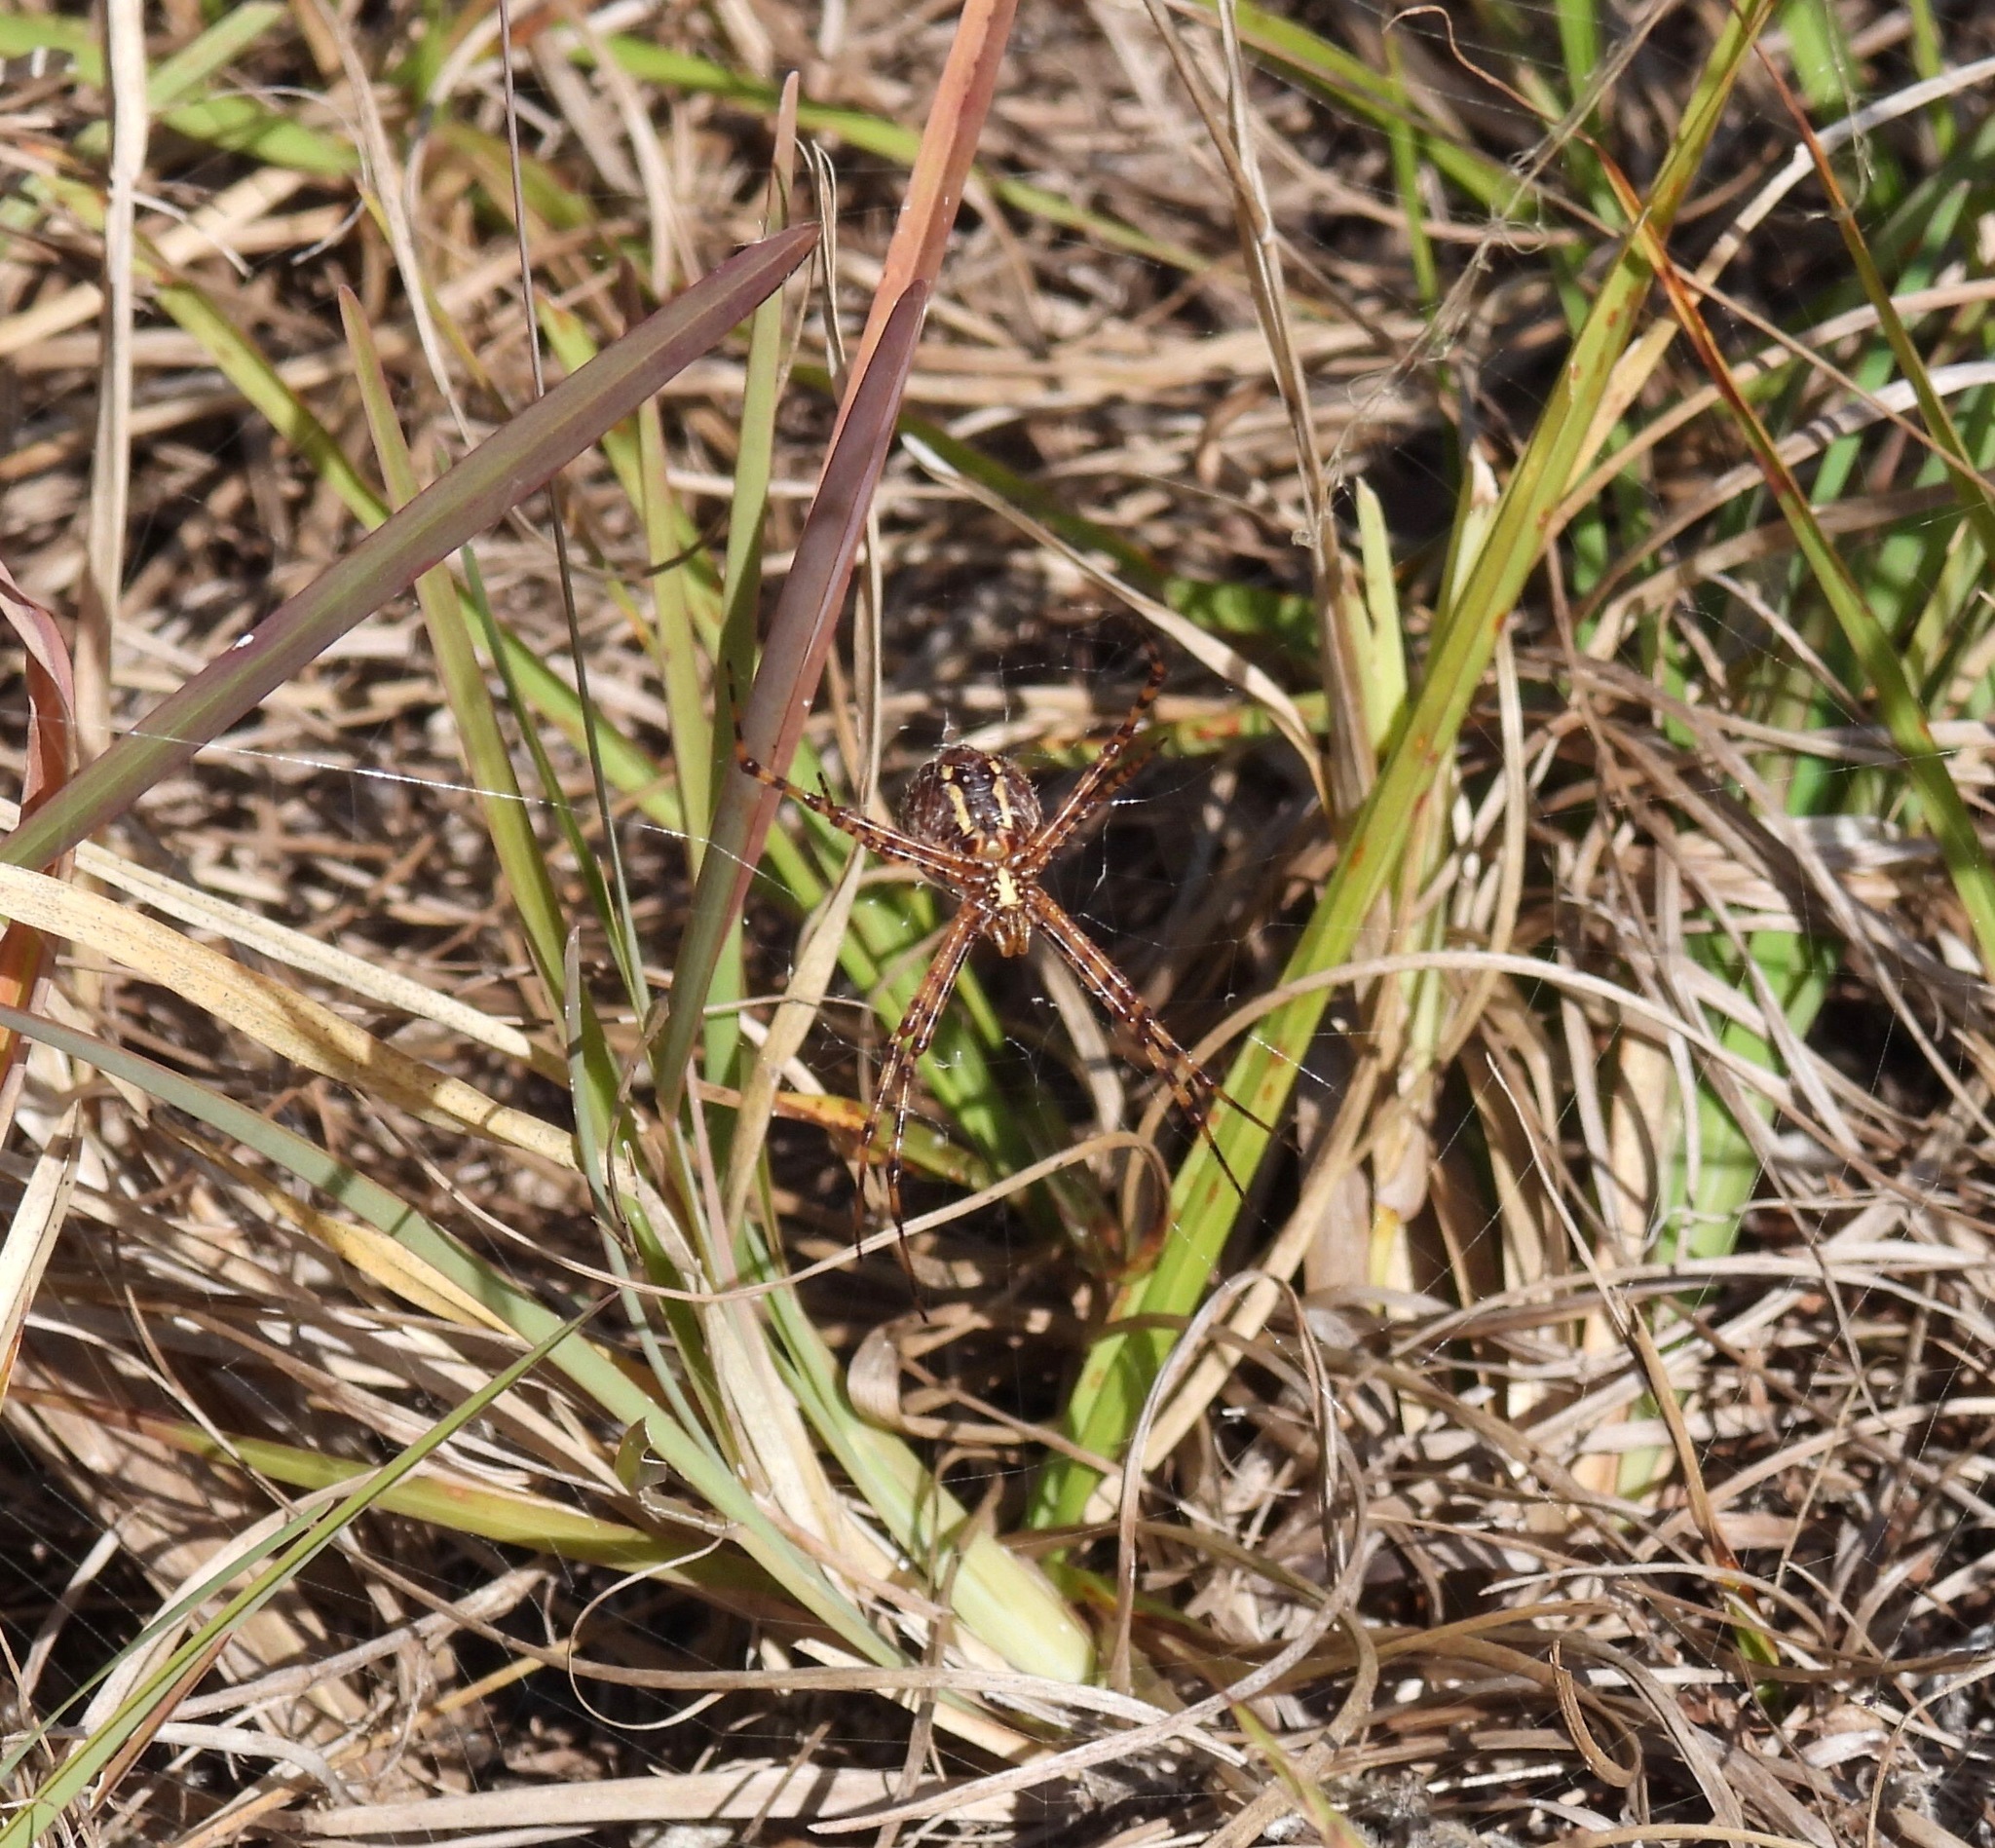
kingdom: Animalia
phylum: Arthropoda
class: Arachnida
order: Araneae
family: Araneidae
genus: Argiope
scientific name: Argiope trifasciata
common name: Banded garden spider
